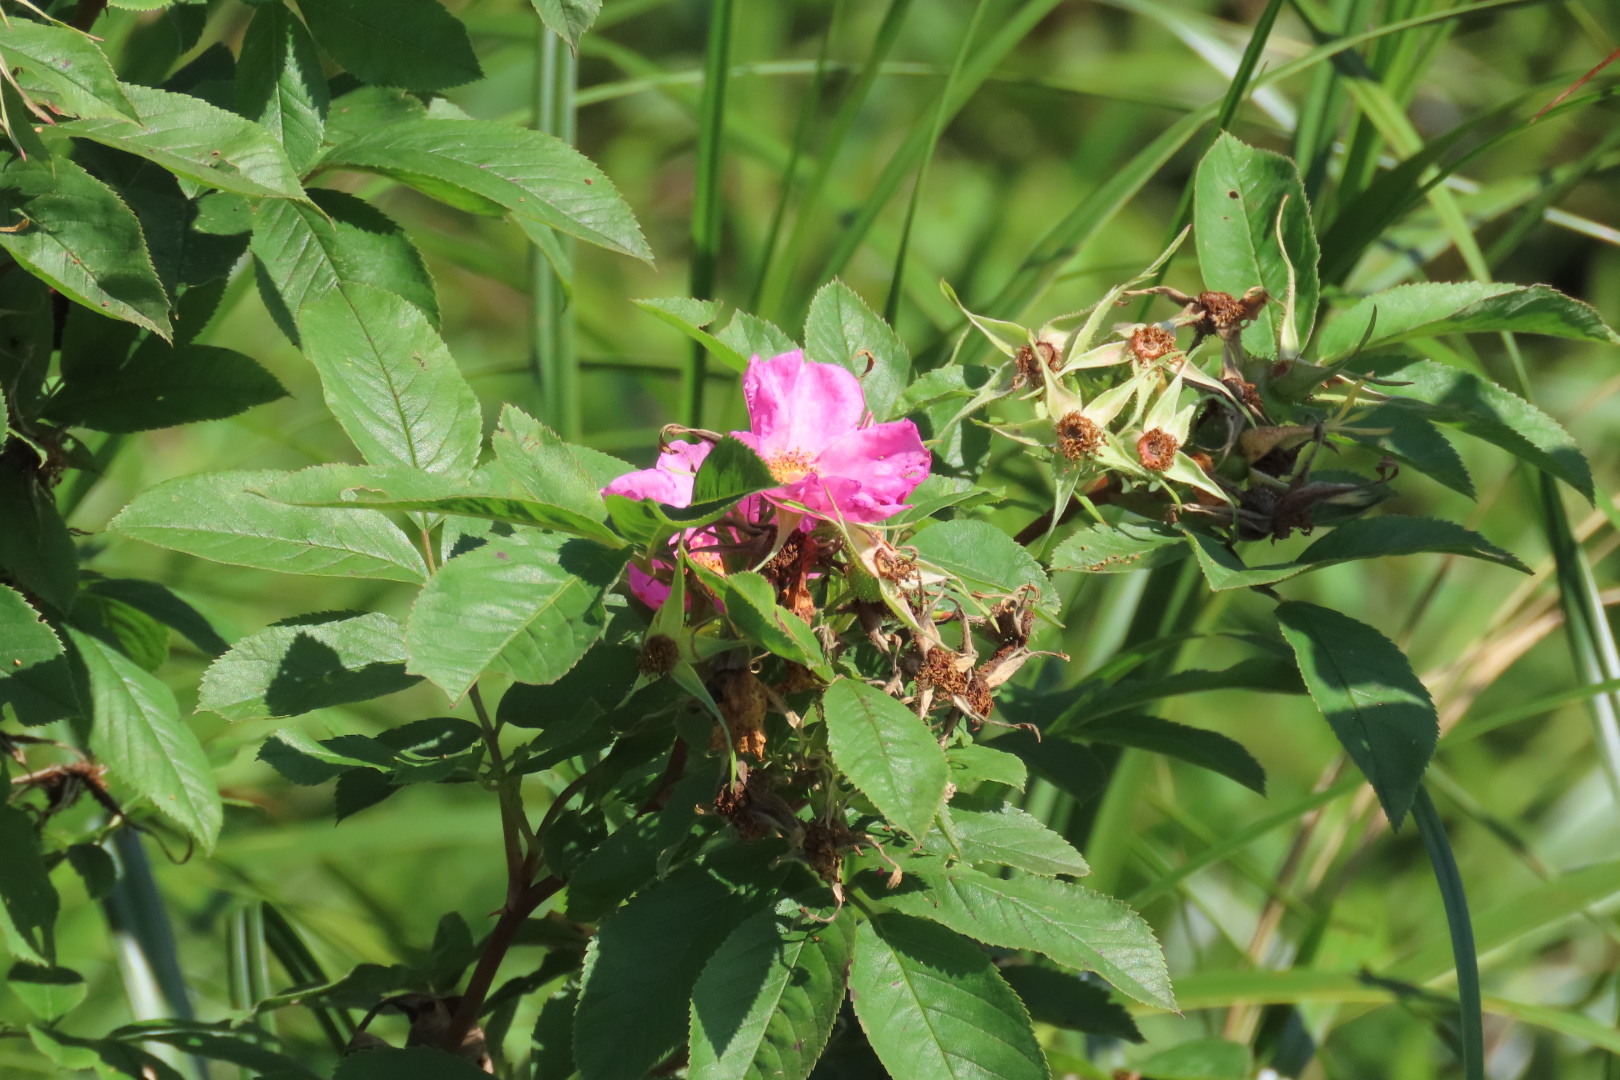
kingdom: Plantae
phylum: Tracheophyta
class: Magnoliopsida
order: Rosales
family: Rosaceae
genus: Rosa
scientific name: Rosa palustris
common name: Swamp rose
